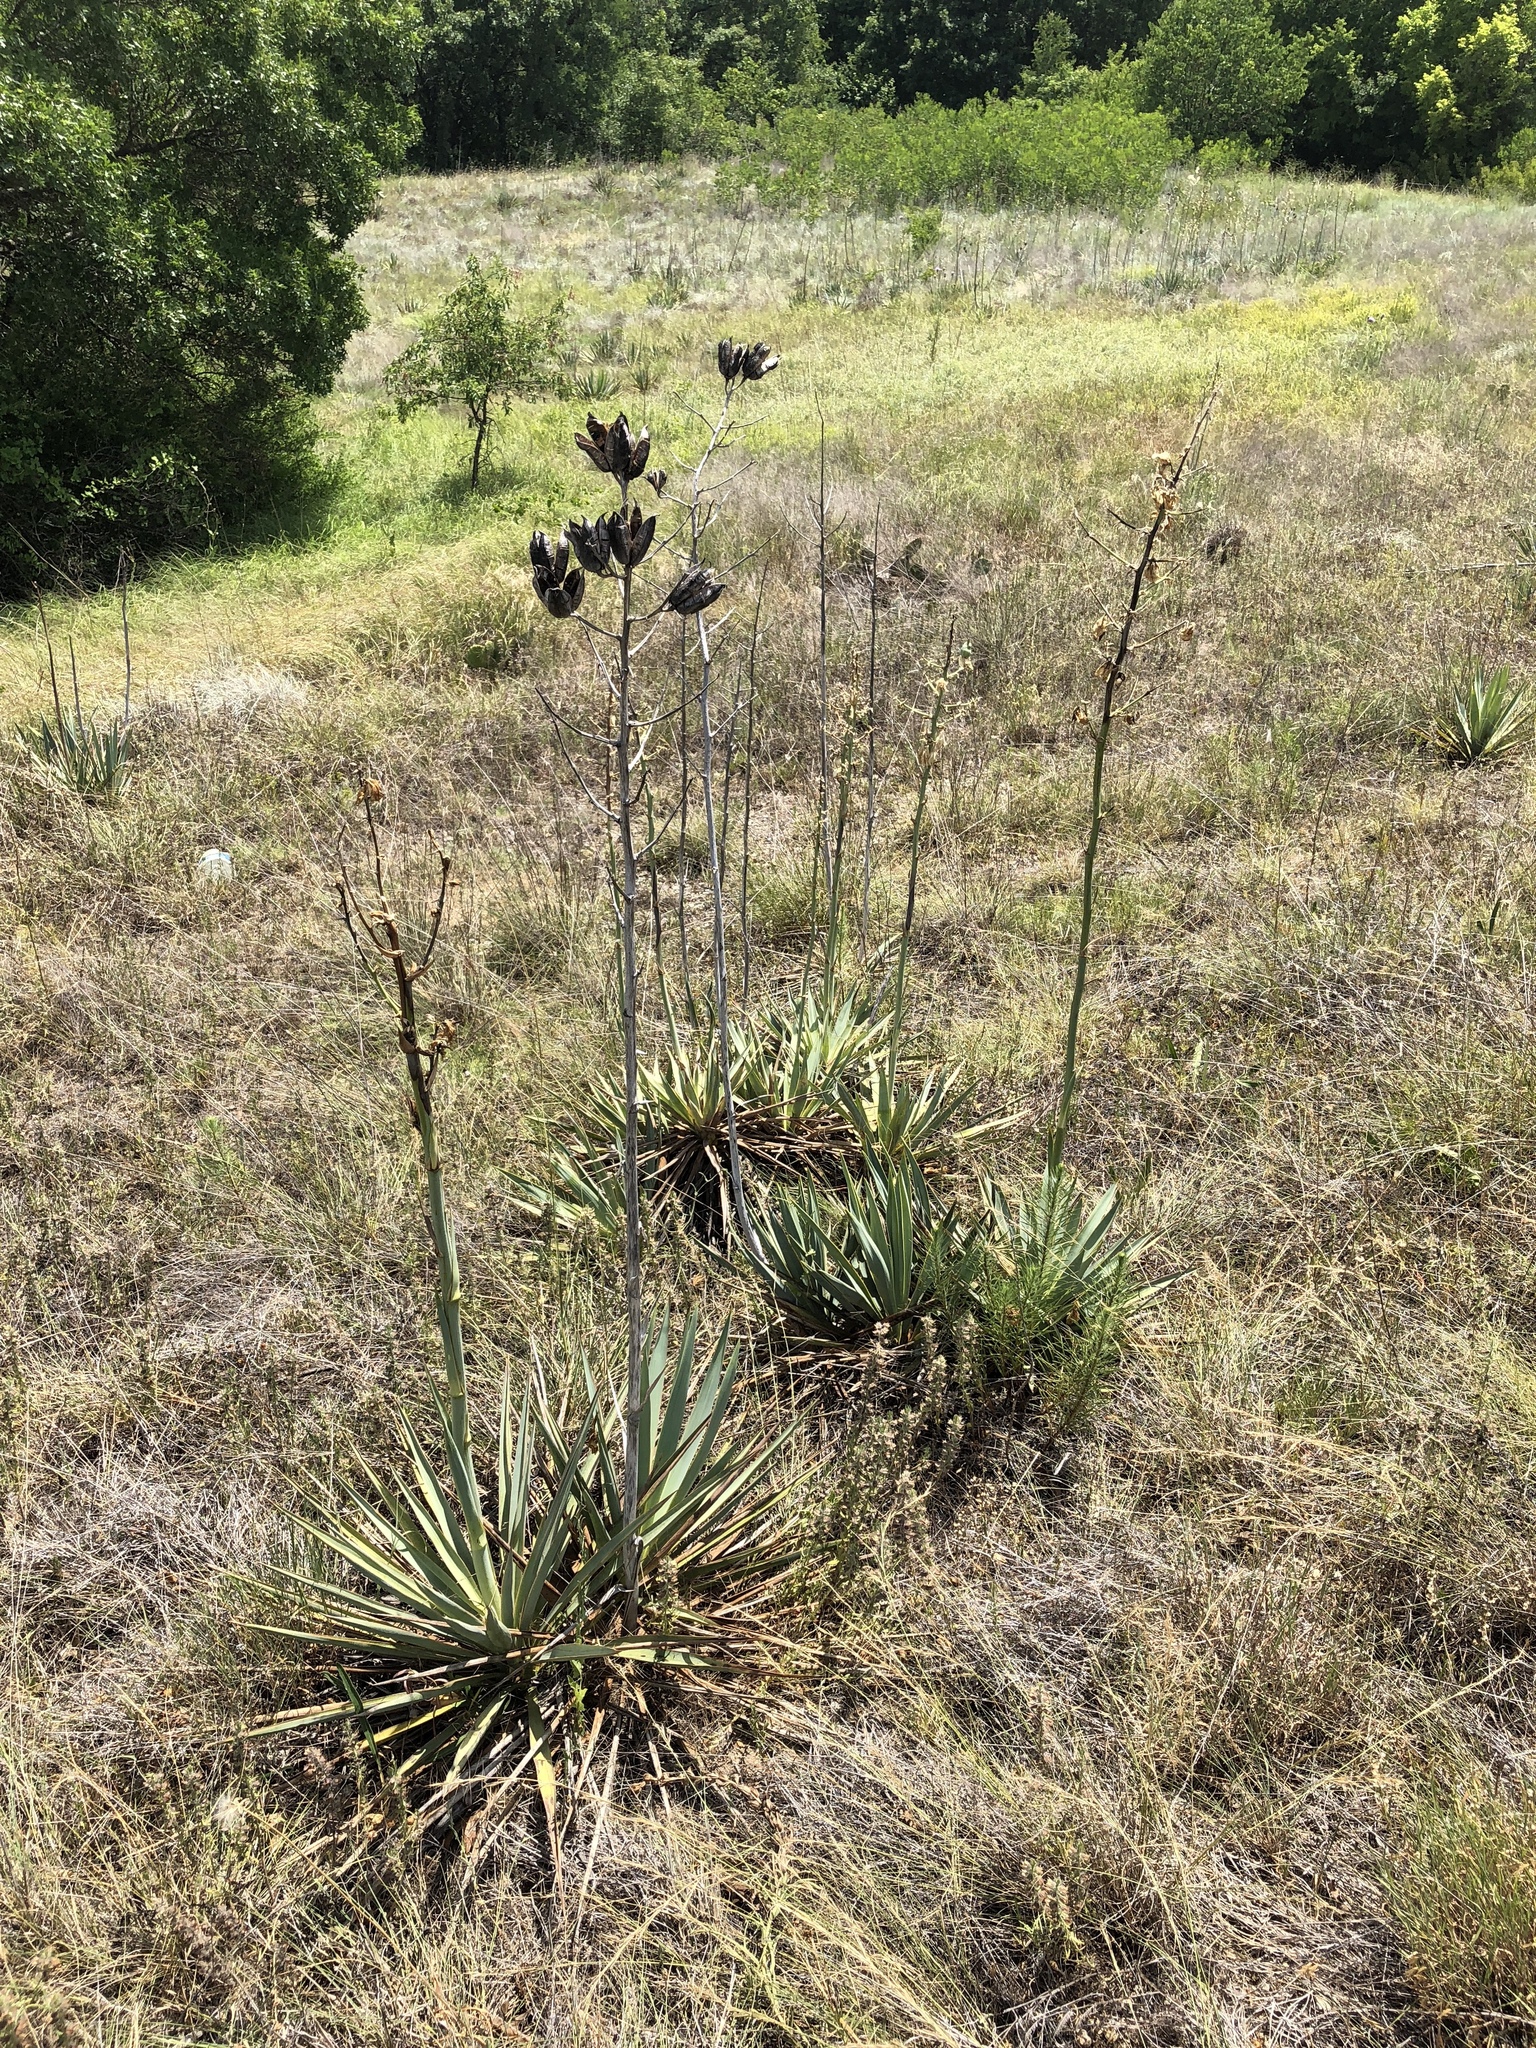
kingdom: Plantae
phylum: Tracheophyta
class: Liliopsida
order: Asparagales
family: Asparagaceae
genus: Yucca
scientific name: Yucca pallida
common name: Pale leaf yucca
